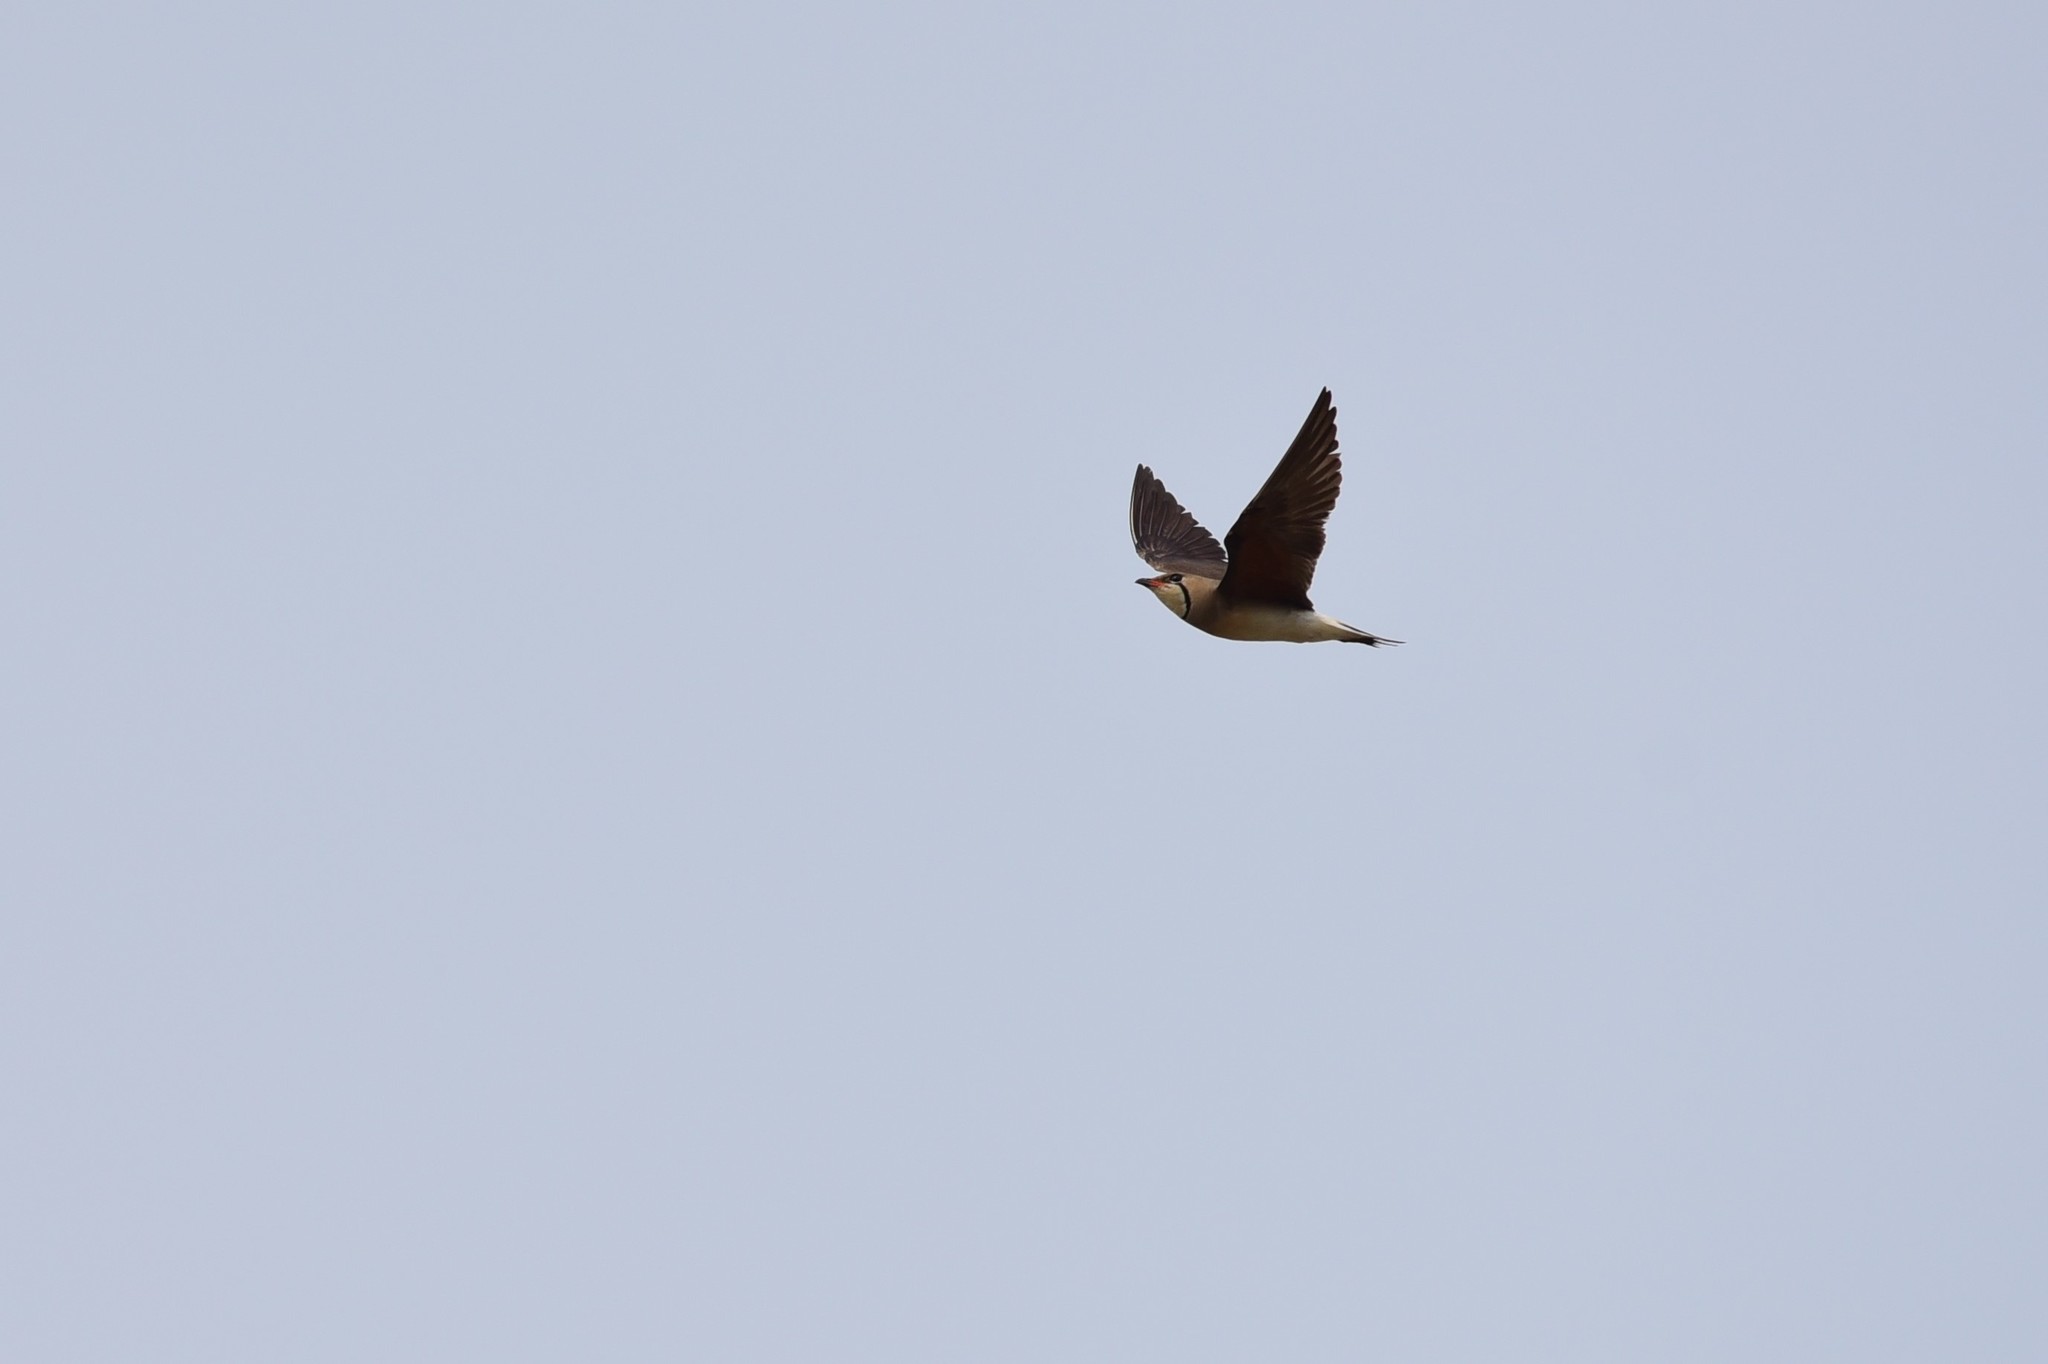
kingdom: Animalia
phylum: Chordata
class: Aves
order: Charadriiformes
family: Glareolidae
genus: Glareola
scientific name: Glareola maldivarum
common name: Oriental pratincole
